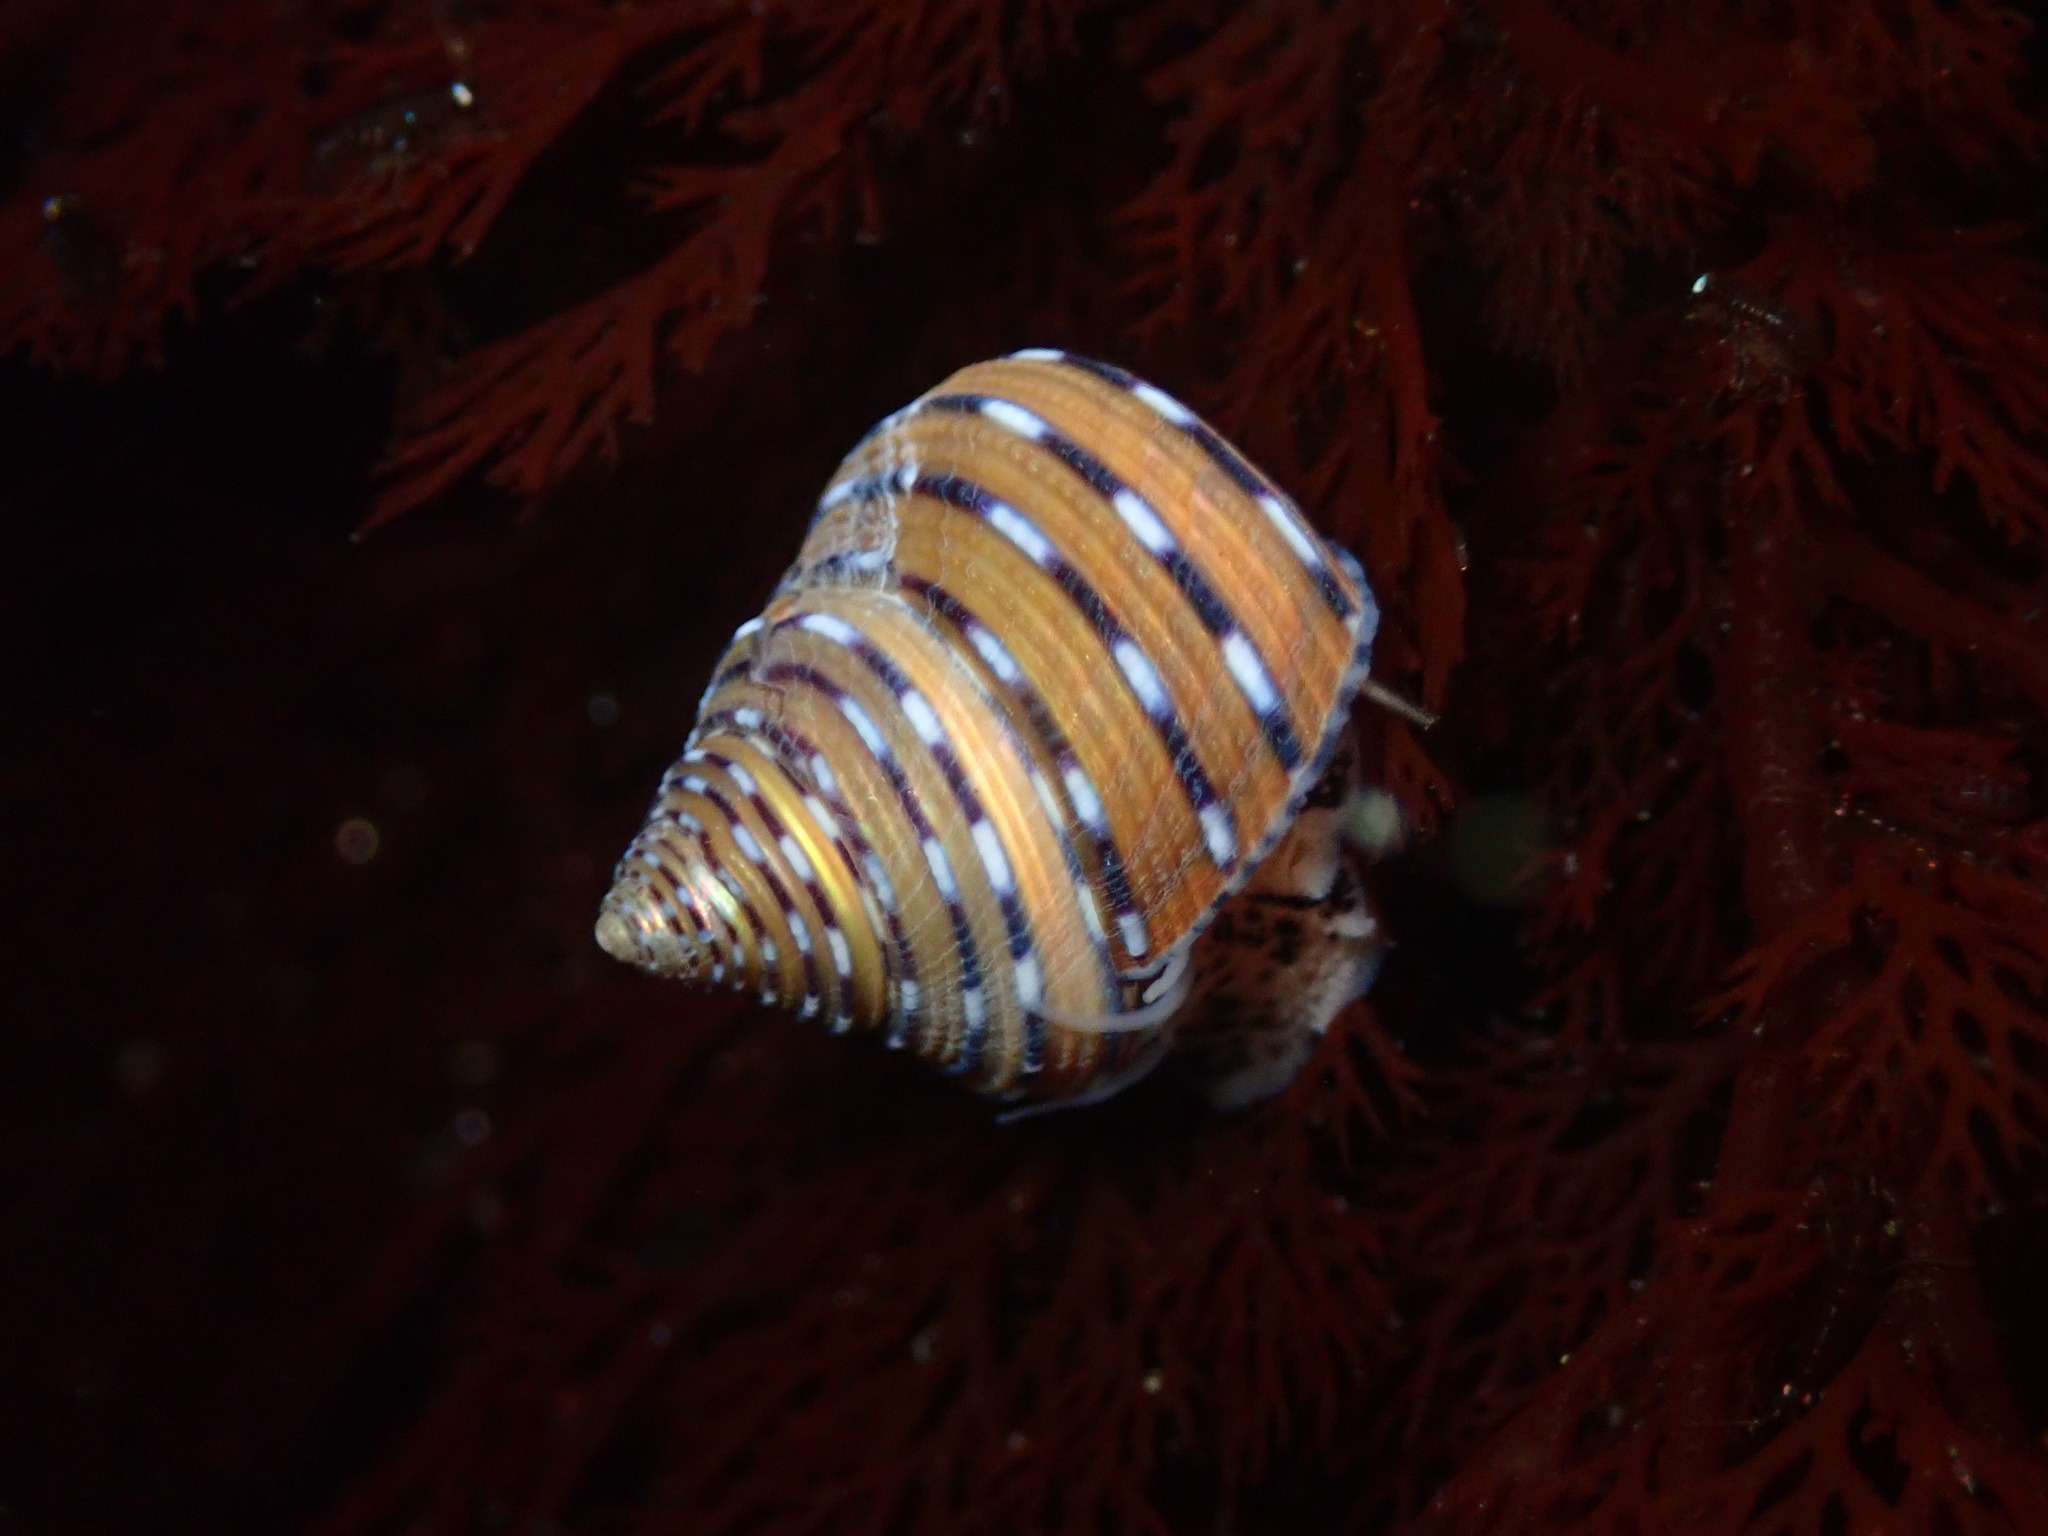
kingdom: Animalia
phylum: Mollusca
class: Gastropoda
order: Trochida
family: Calliostomatidae
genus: Calliostoma
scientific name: Calliostoma tricolor
